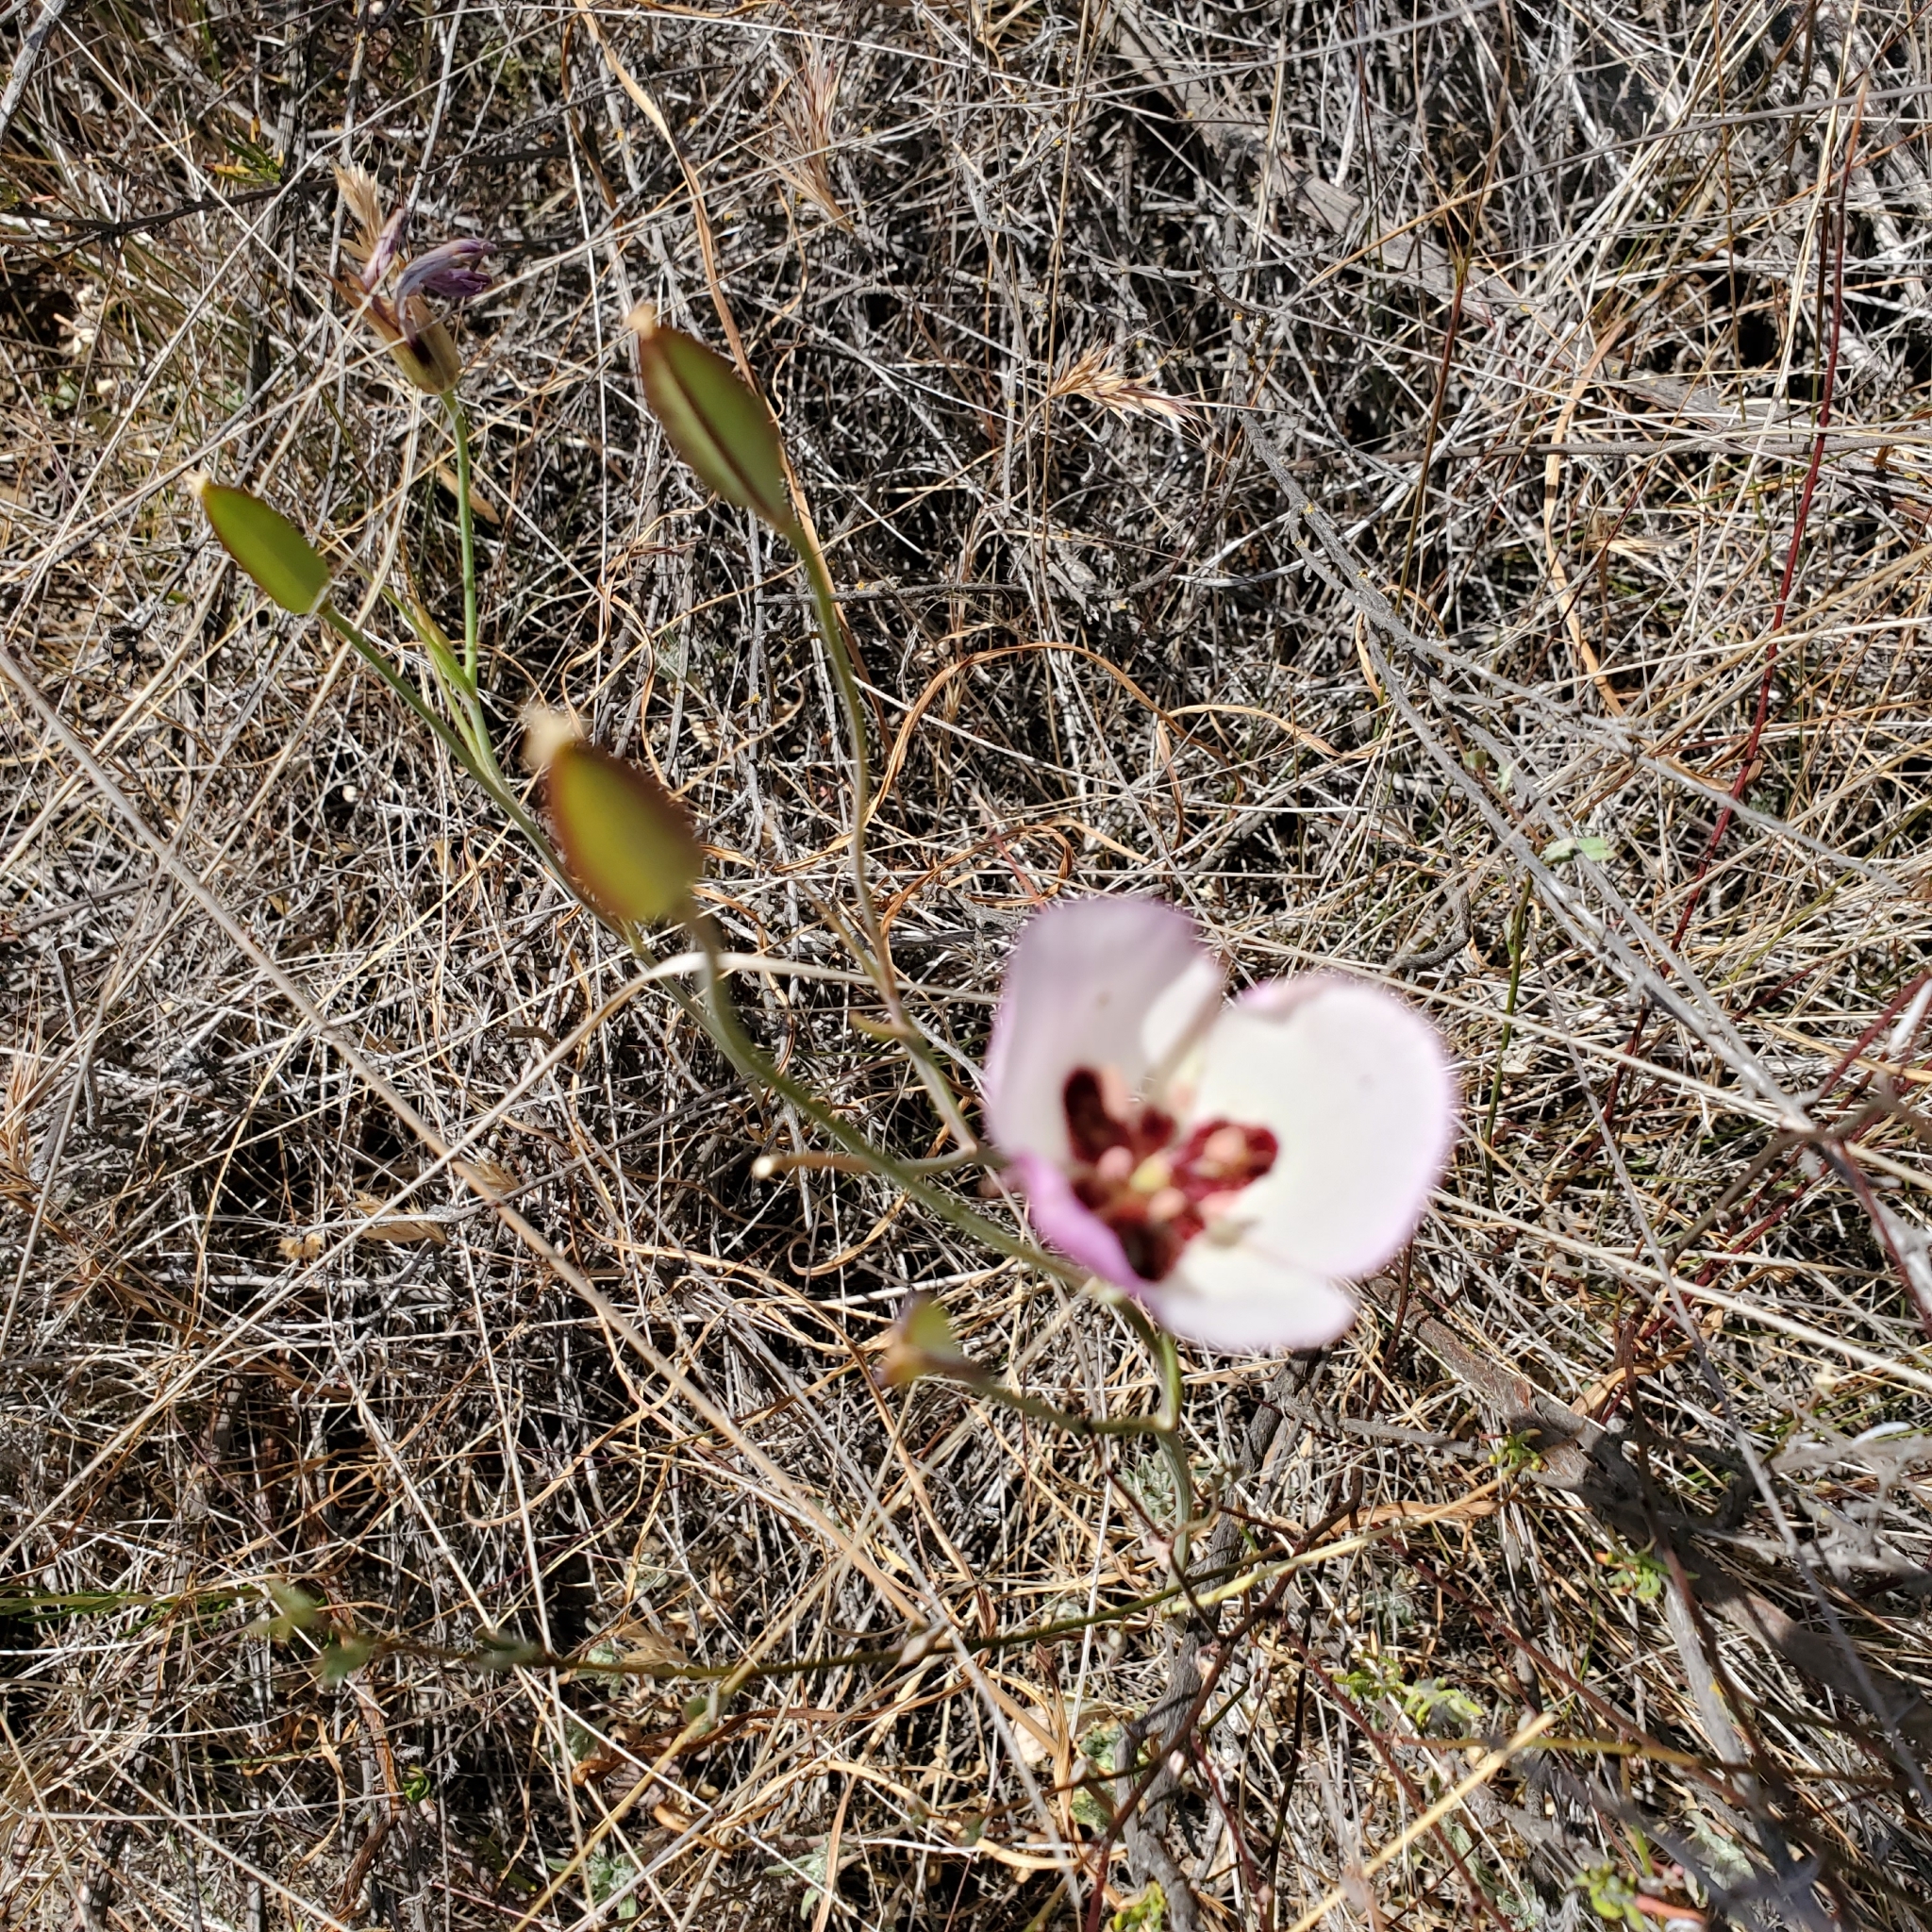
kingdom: Plantae
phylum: Tracheophyta
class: Liliopsida
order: Liliales
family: Liliaceae
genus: Calochortus
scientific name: Calochortus catalinae
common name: Catalina mariposa-lily
